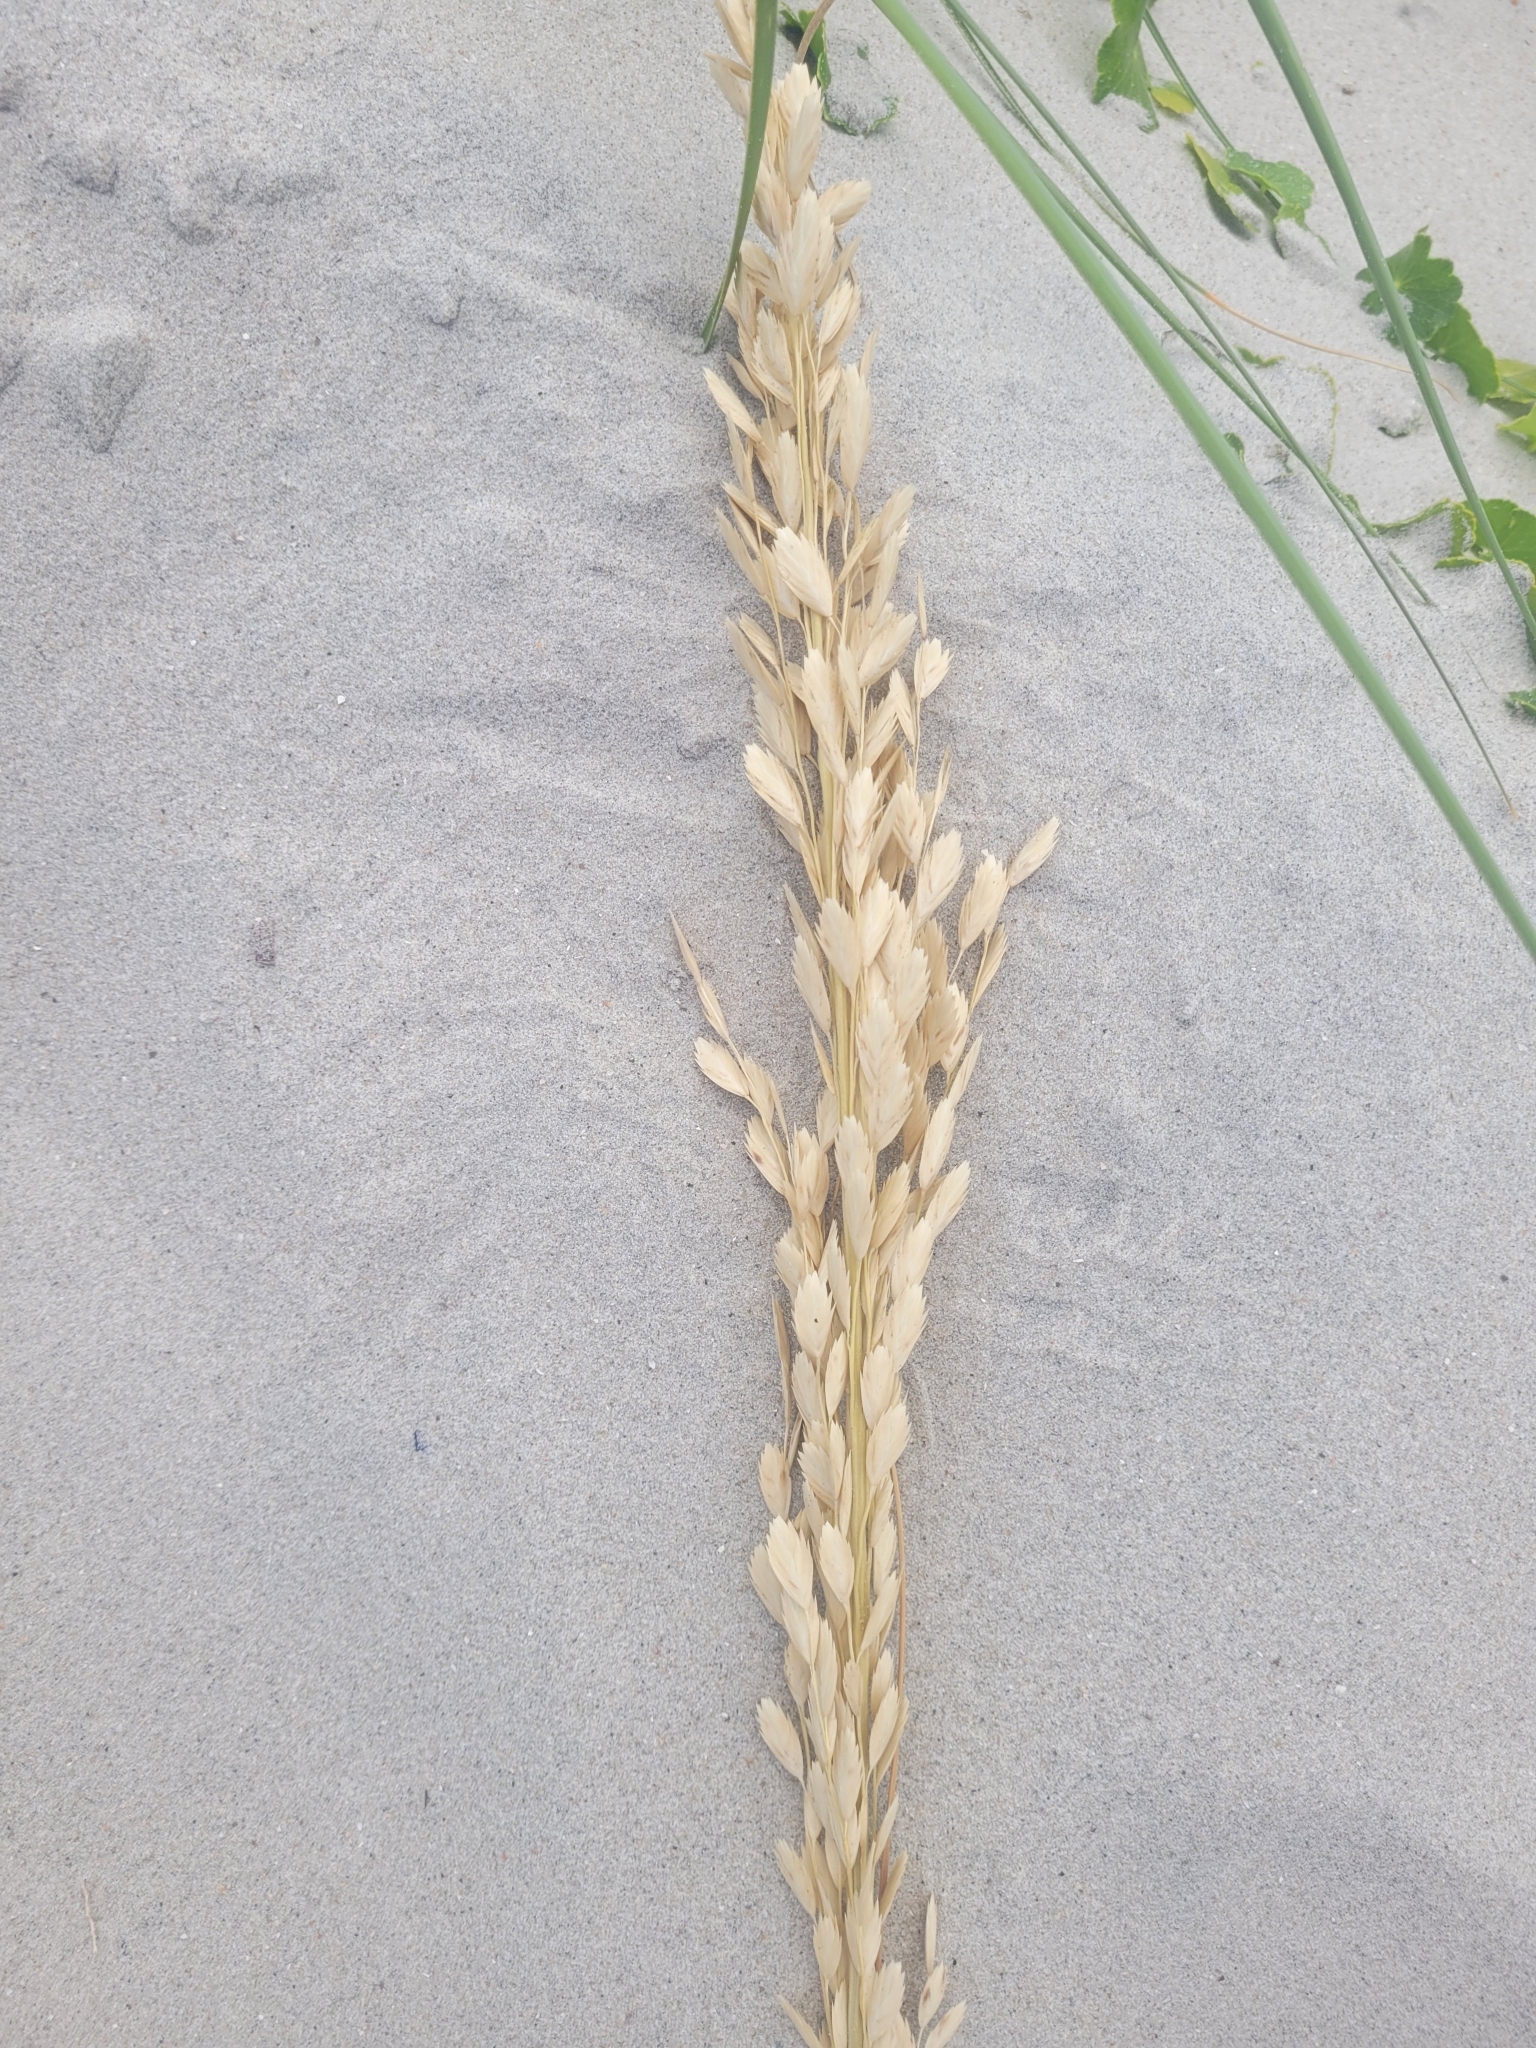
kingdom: Plantae
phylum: Tracheophyta
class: Liliopsida
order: Poales
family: Poaceae
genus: Uniola
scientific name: Uniola paniculata
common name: Seaside-oats
